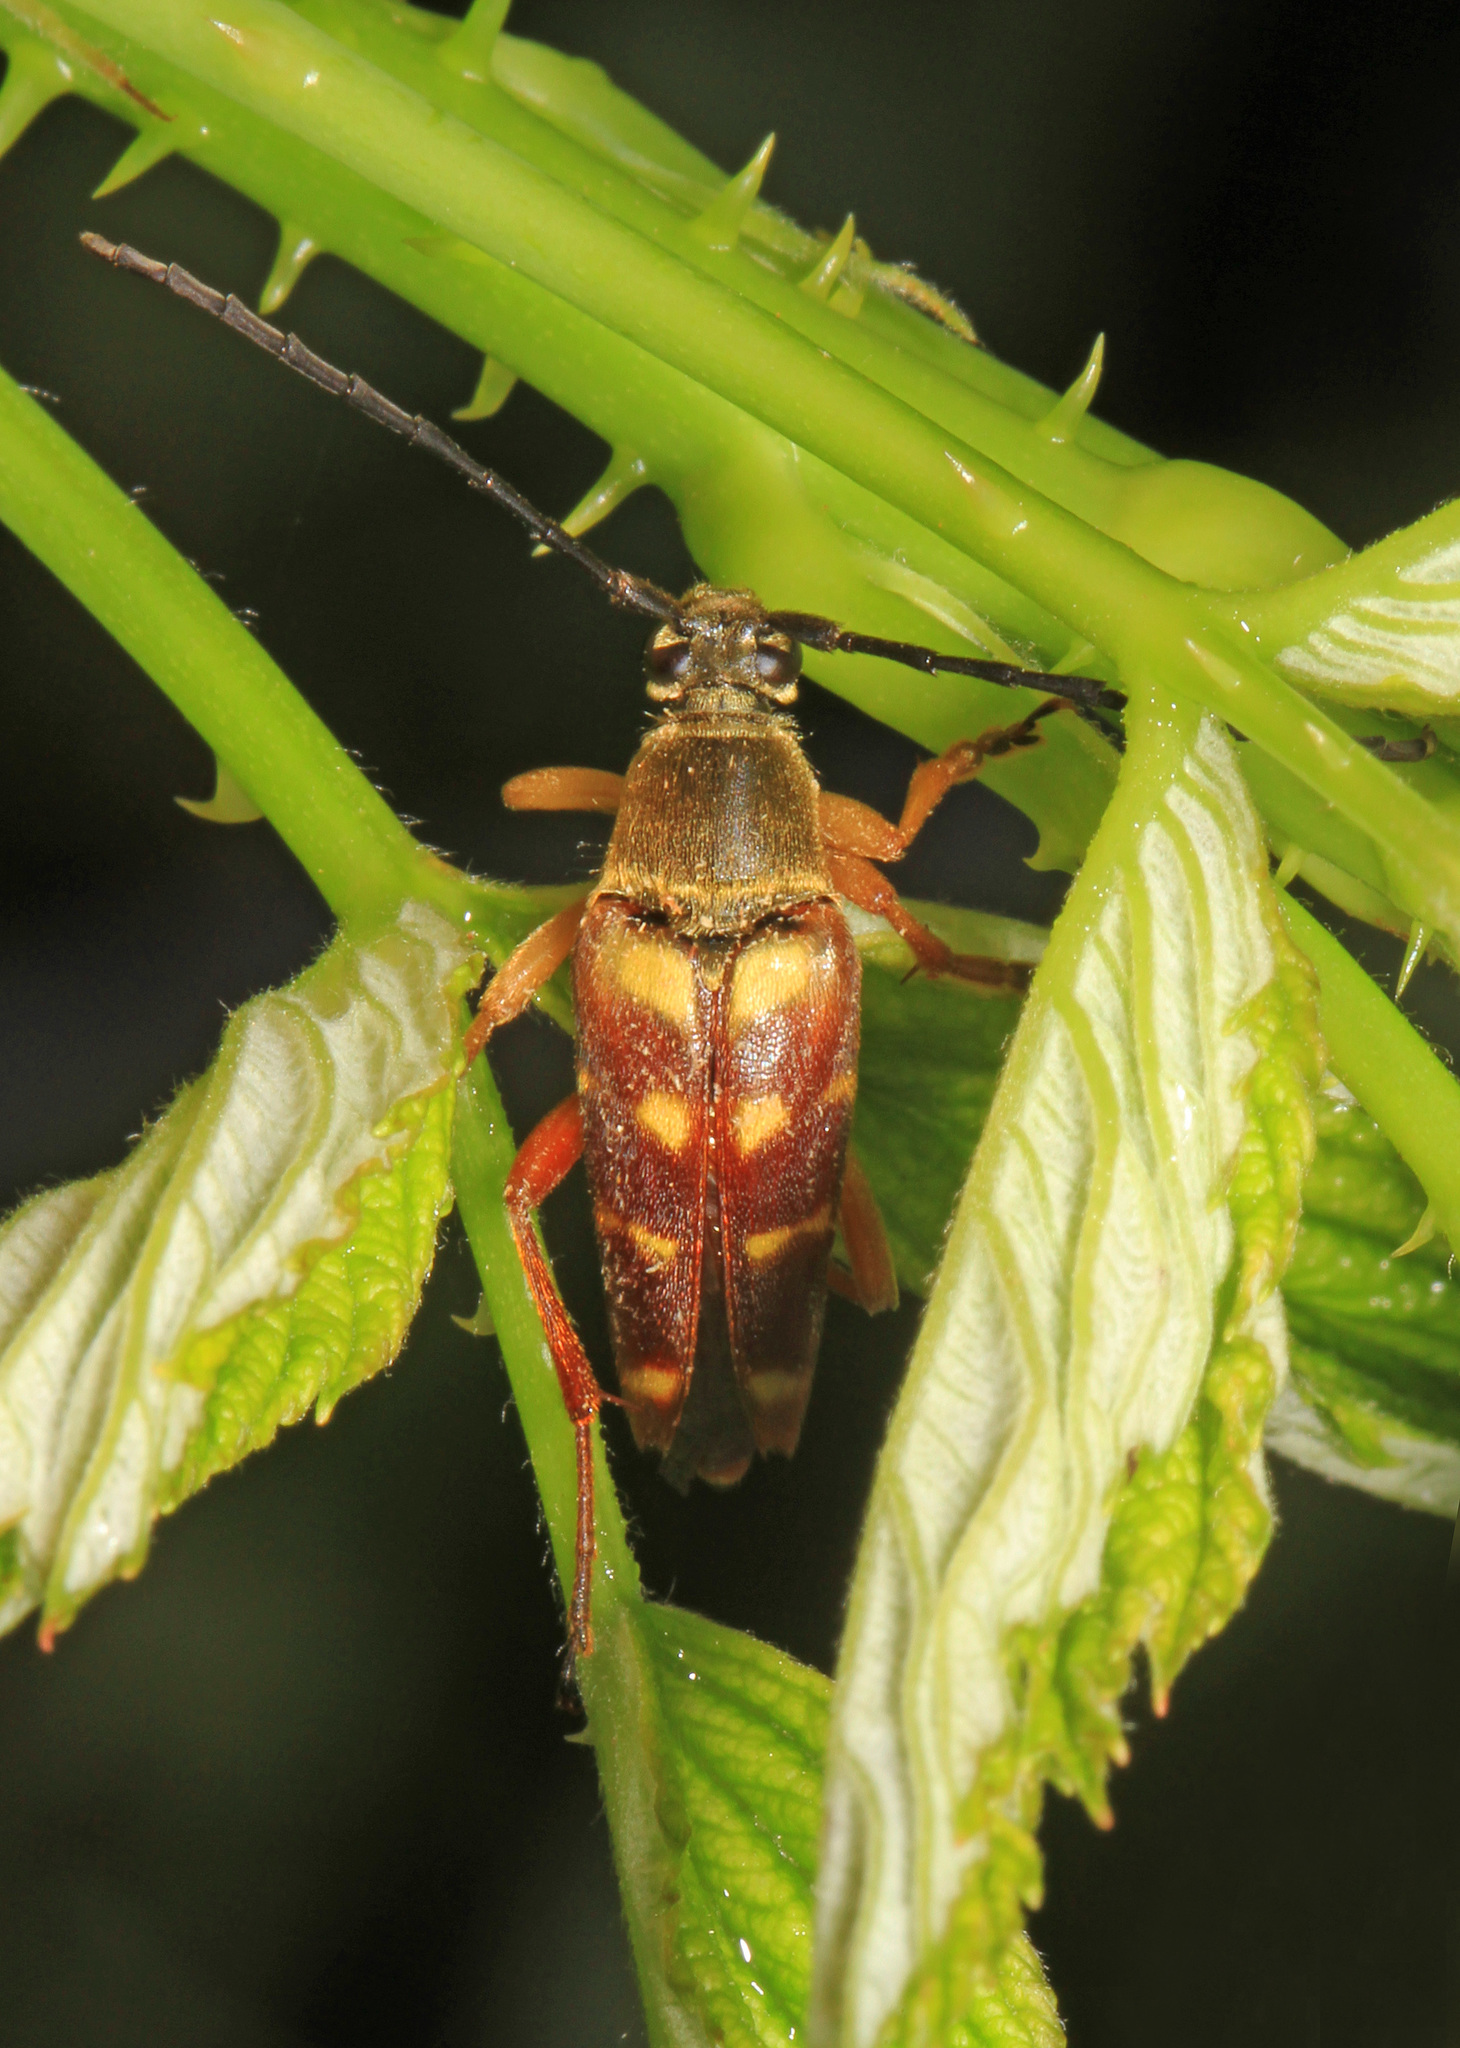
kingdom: Animalia
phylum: Arthropoda
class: Insecta
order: Coleoptera
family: Cerambycidae
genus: Typocerus
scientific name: Typocerus velutinus
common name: Banded longhorn beetle
